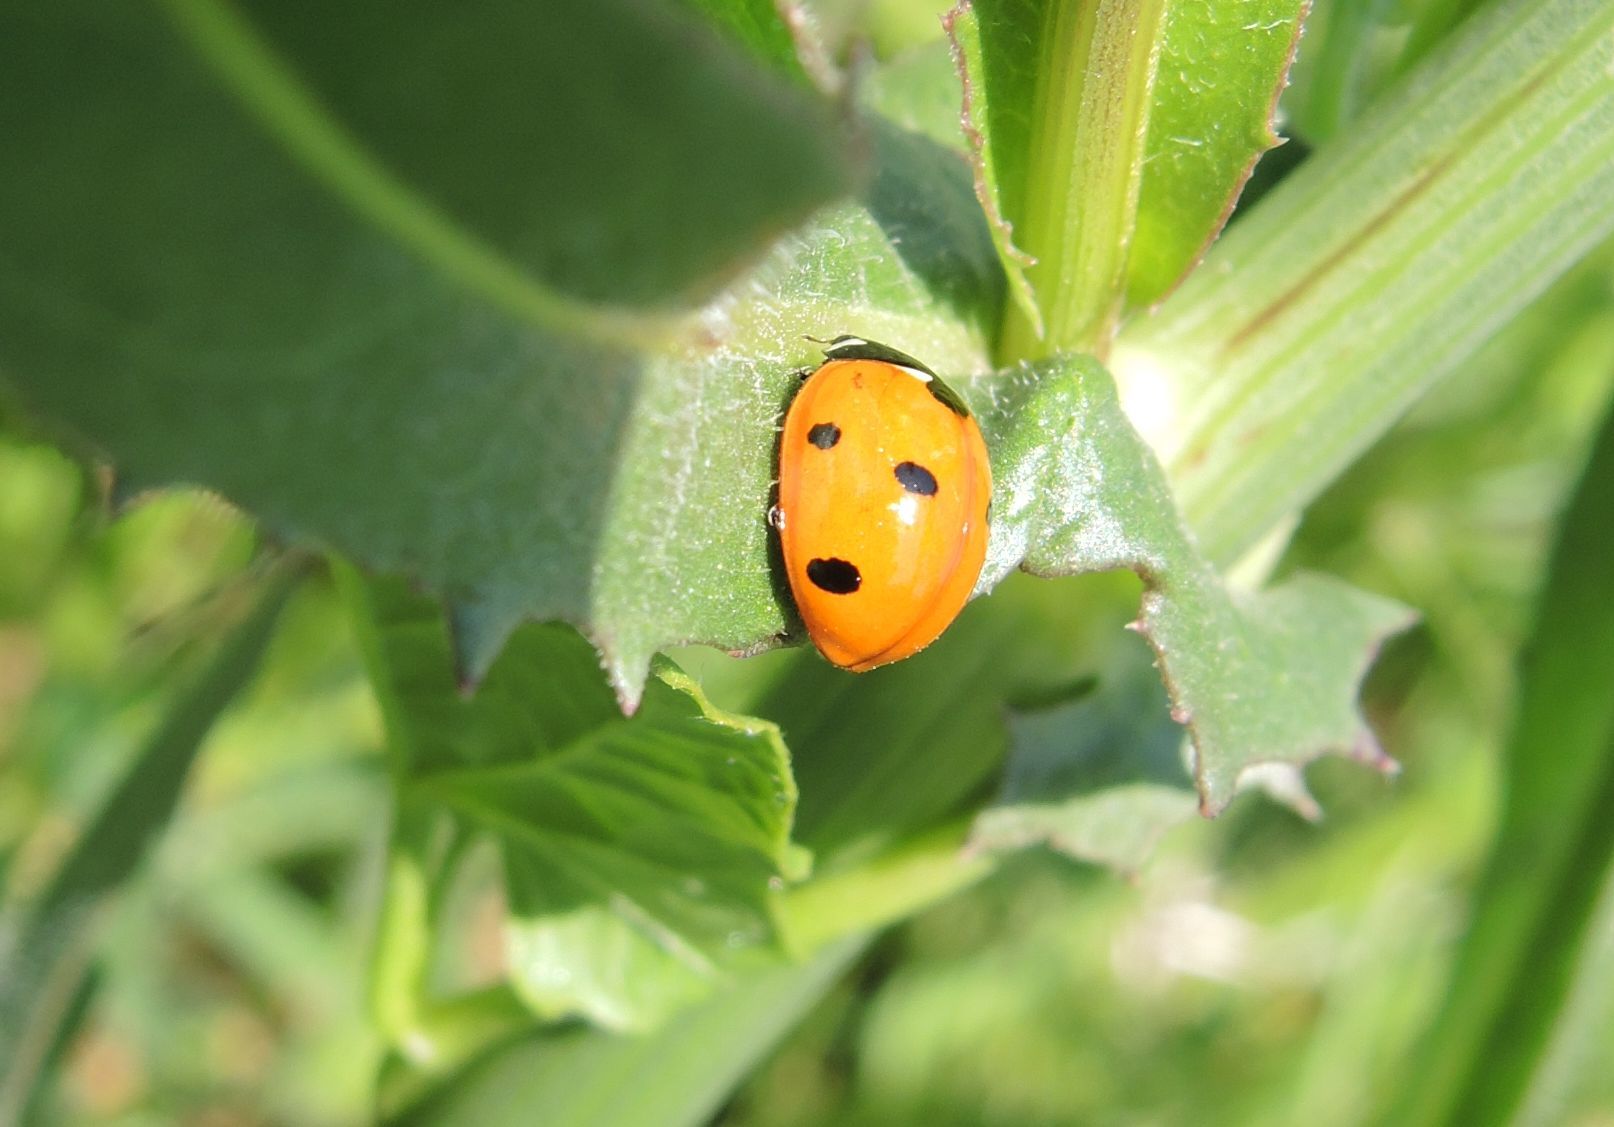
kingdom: Animalia
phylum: Arthropoda
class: Insecta
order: Coleoptera
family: Coccinellidae
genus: Coccinella
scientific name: Coccinella septempunctata
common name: Sevenspotted lady beetle
